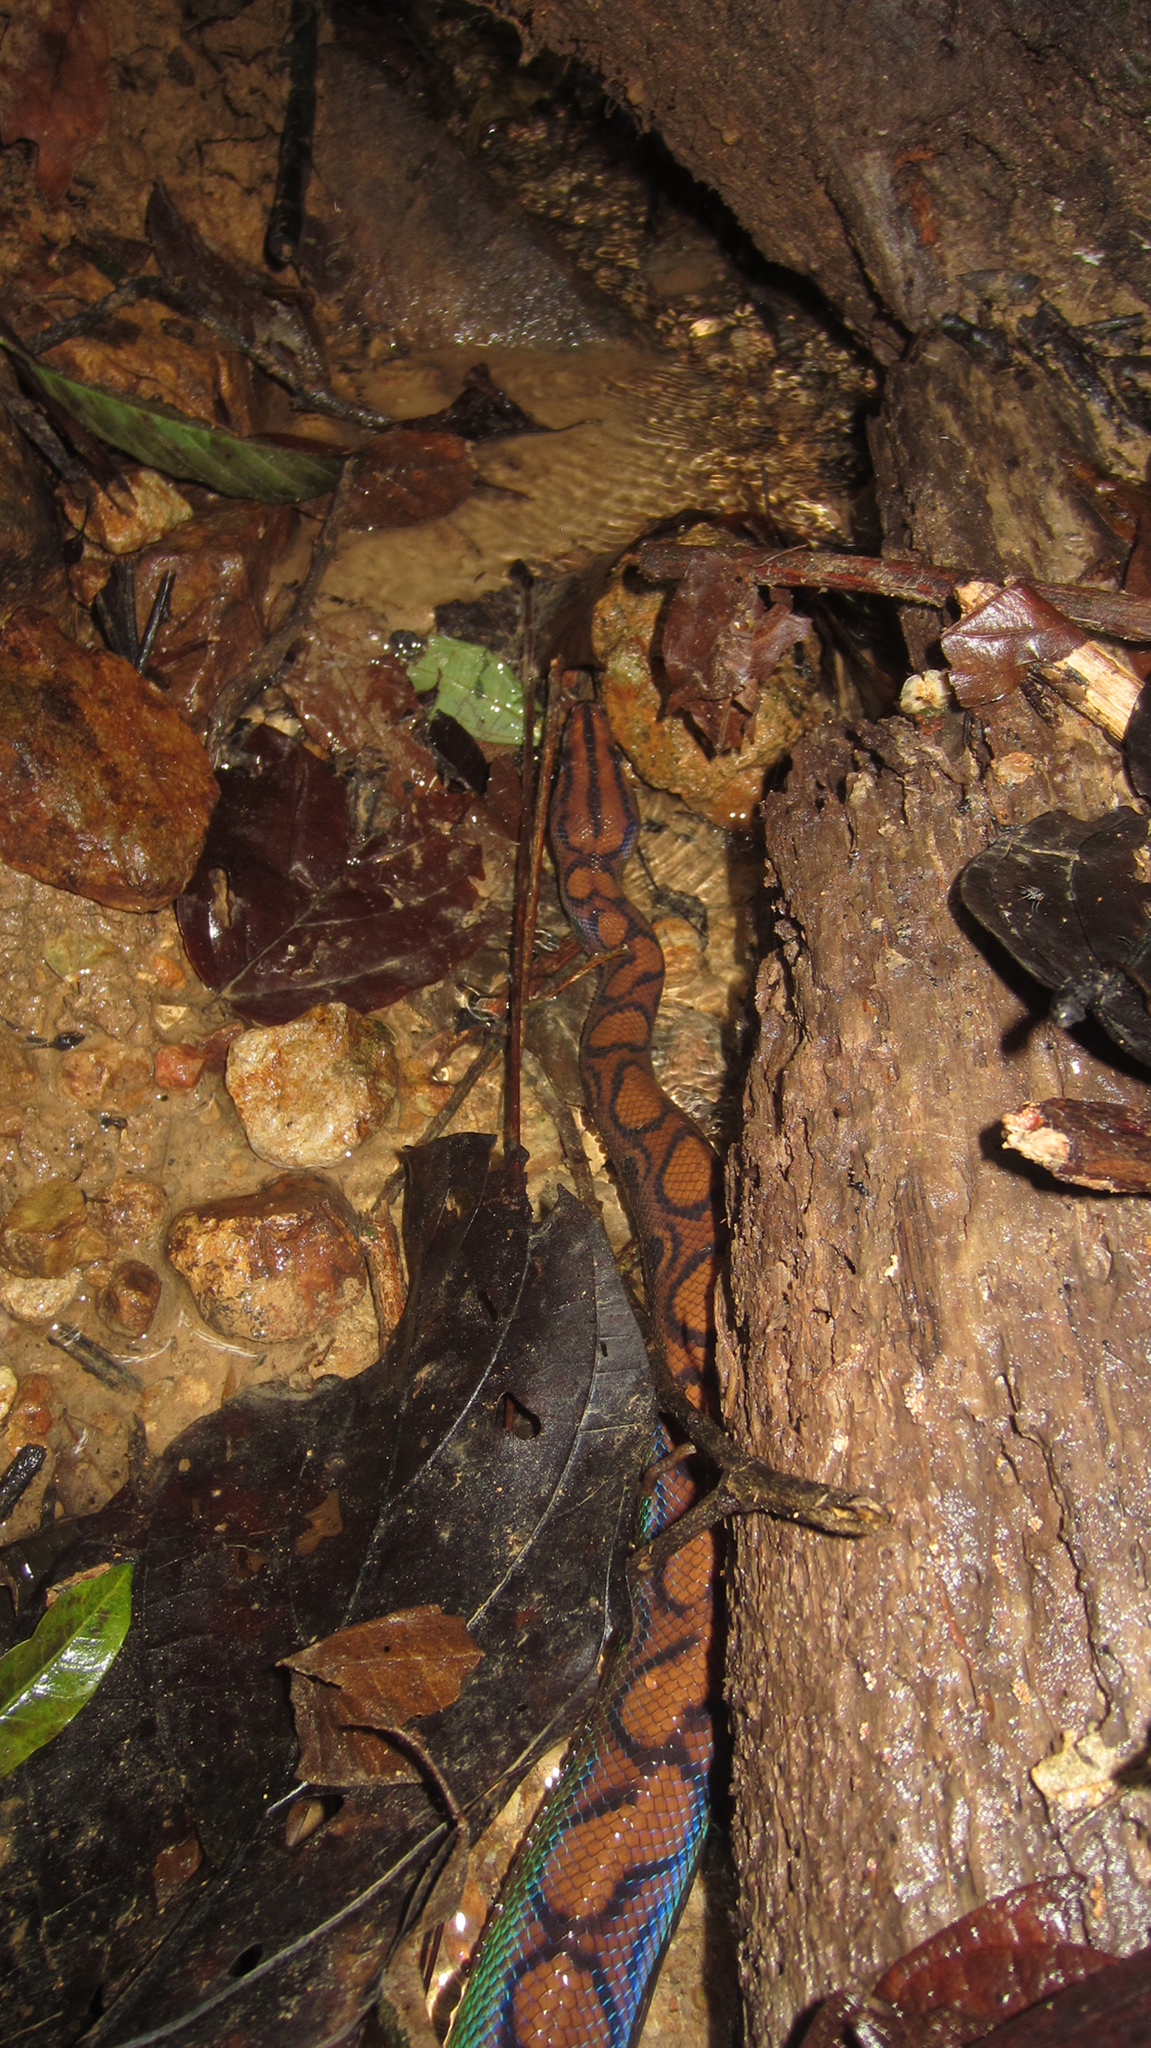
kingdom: Animalia
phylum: Chordata
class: Squamata
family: Boidae
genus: Epicrates
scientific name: Epicrates cenchria
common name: Rainbow boa
